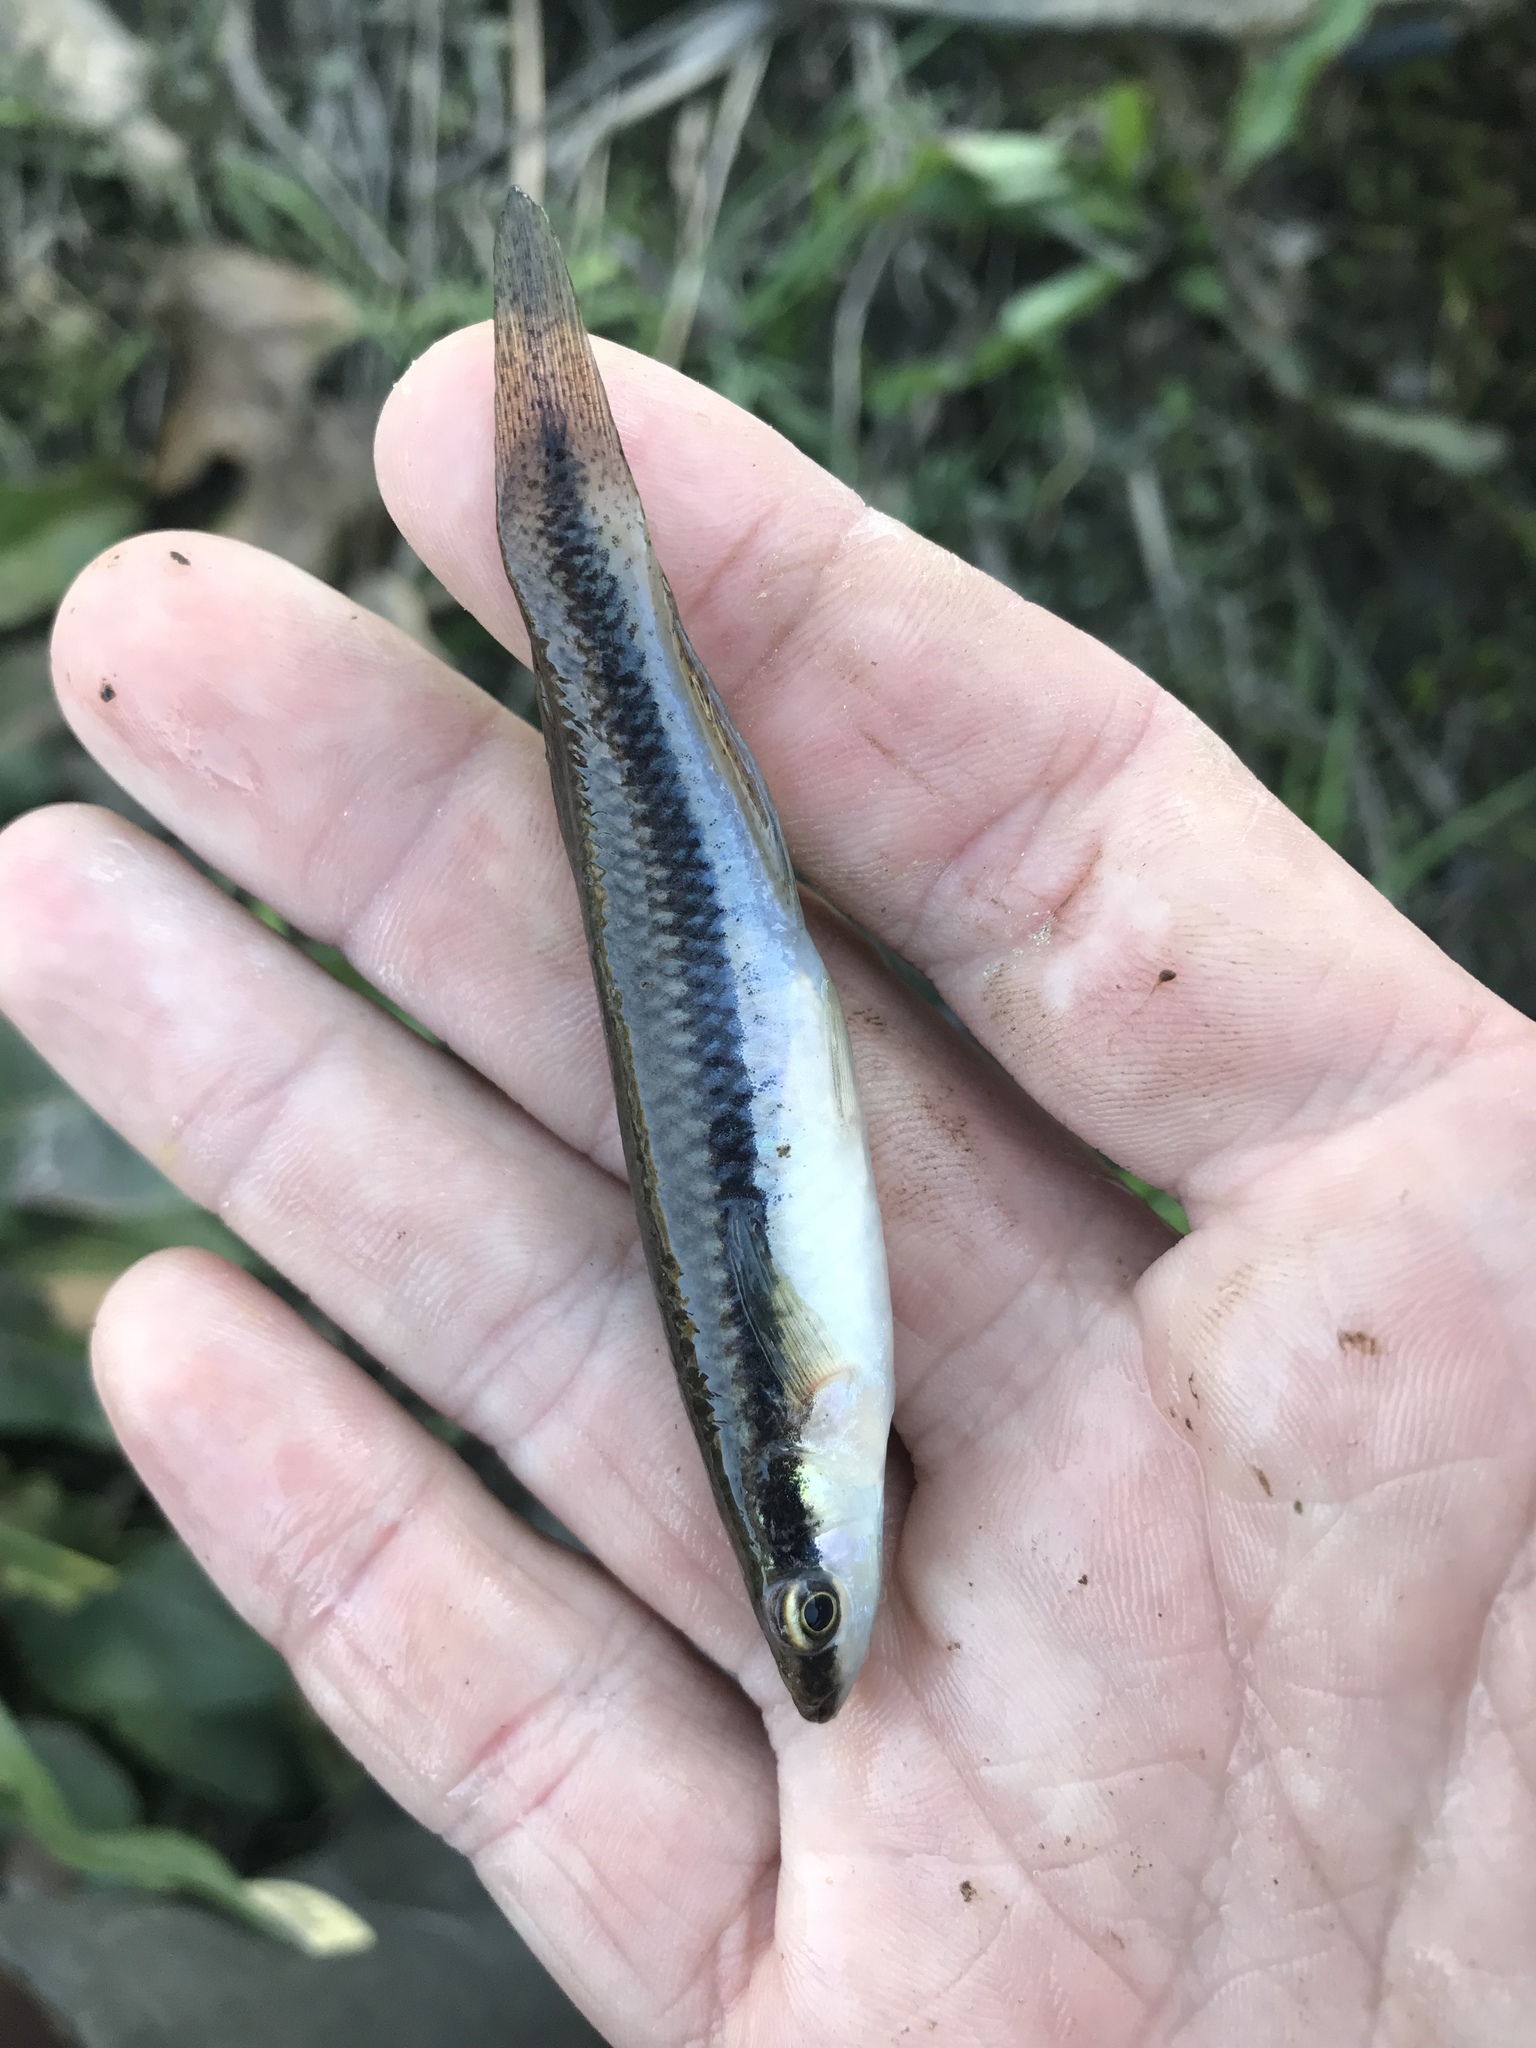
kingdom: Animalia
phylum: Chordata
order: Cyprinodontiformes
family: Fundulidae
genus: Fundulus
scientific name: Fundulus notatus
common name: Blackstripe topminnow
